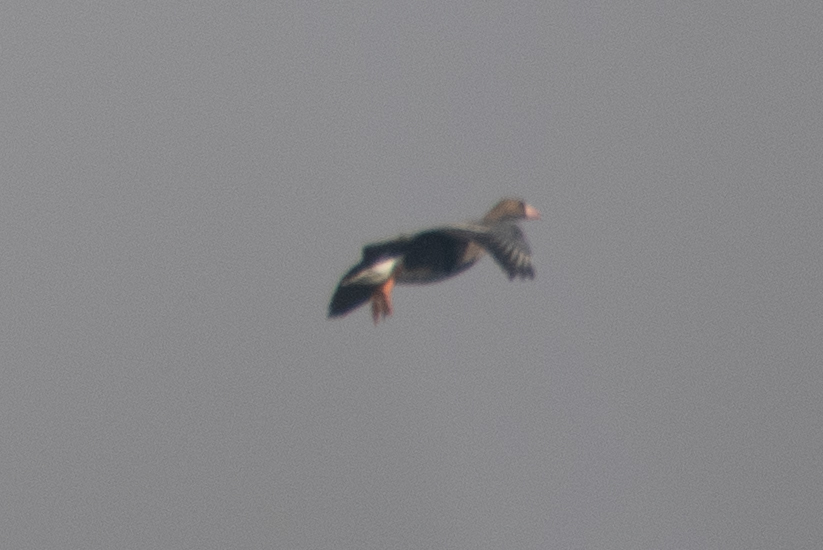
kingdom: Animalia
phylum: Chordata
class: Aves
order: Anseriformes
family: Anatidae
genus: Anser
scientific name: Anser albifrons
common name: Greater white-fronted goose
